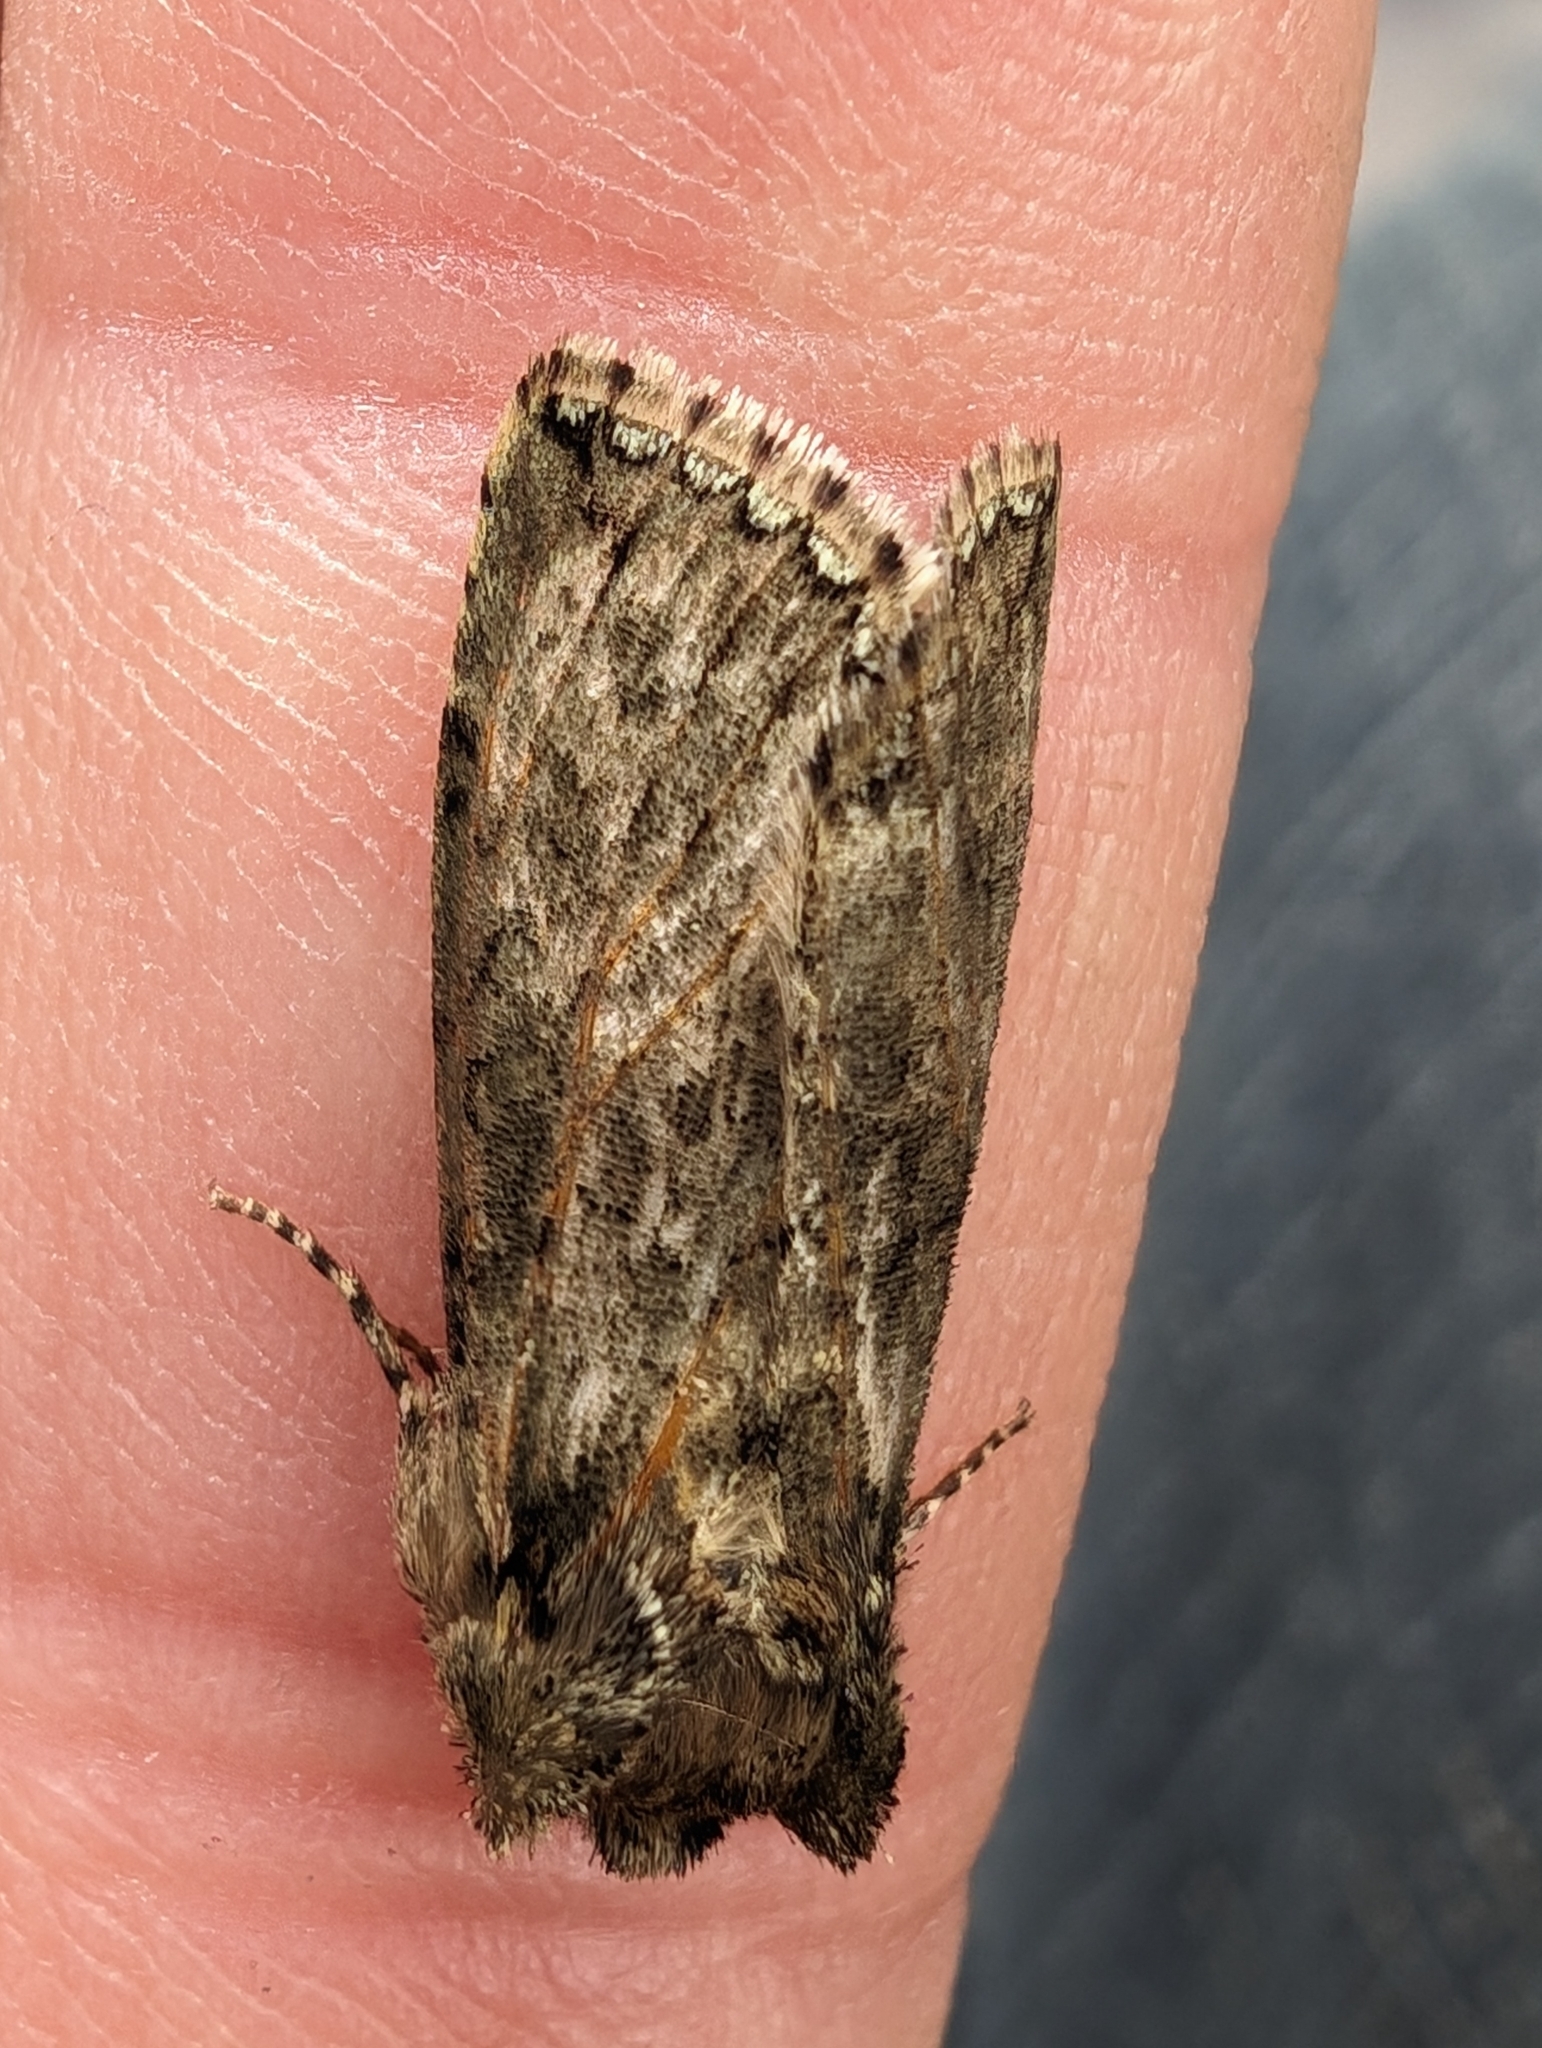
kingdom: Animalia
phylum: Arthropoda
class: Insecta
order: Lepidoptera
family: Drepanidae
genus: Polyploca
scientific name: Polyploca ridens
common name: Frosted green
